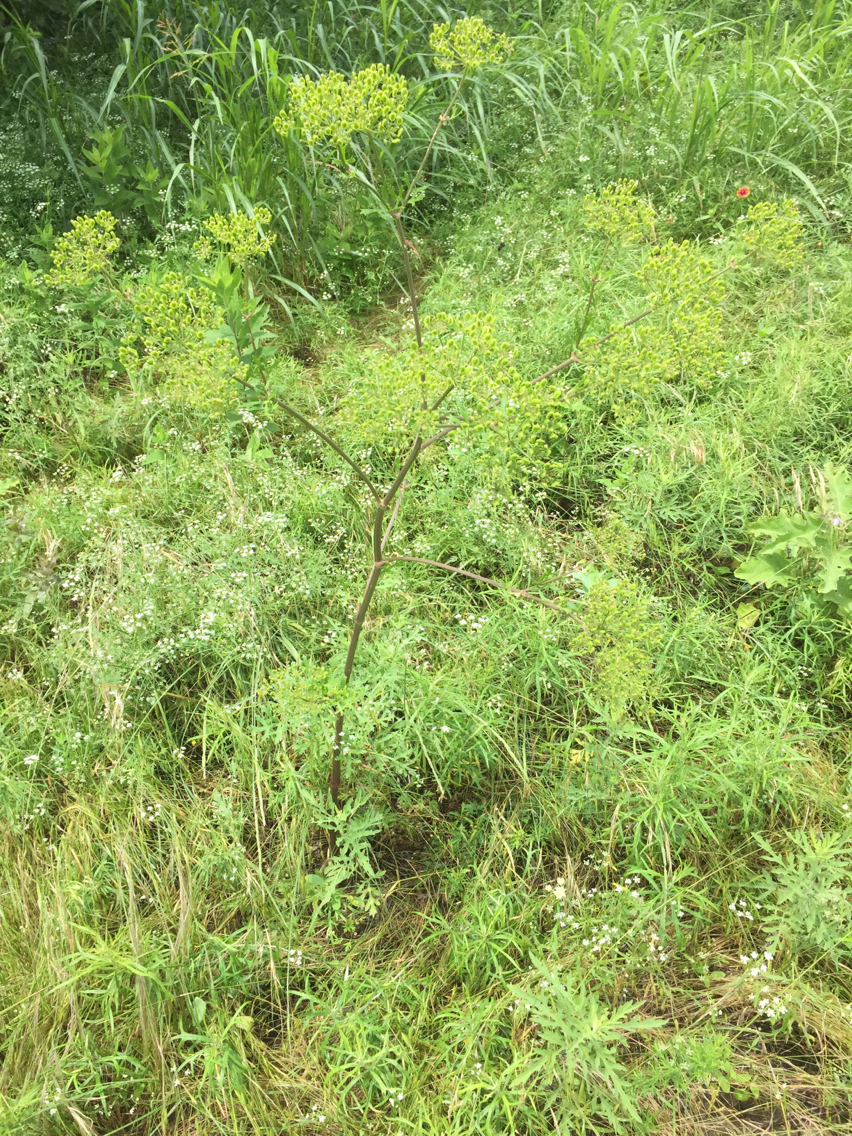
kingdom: Plantae
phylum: Tracheophyta
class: Magnoliopsida
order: Apiales
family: Apiaceae
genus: Polytaenia
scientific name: Polytaenia texana
